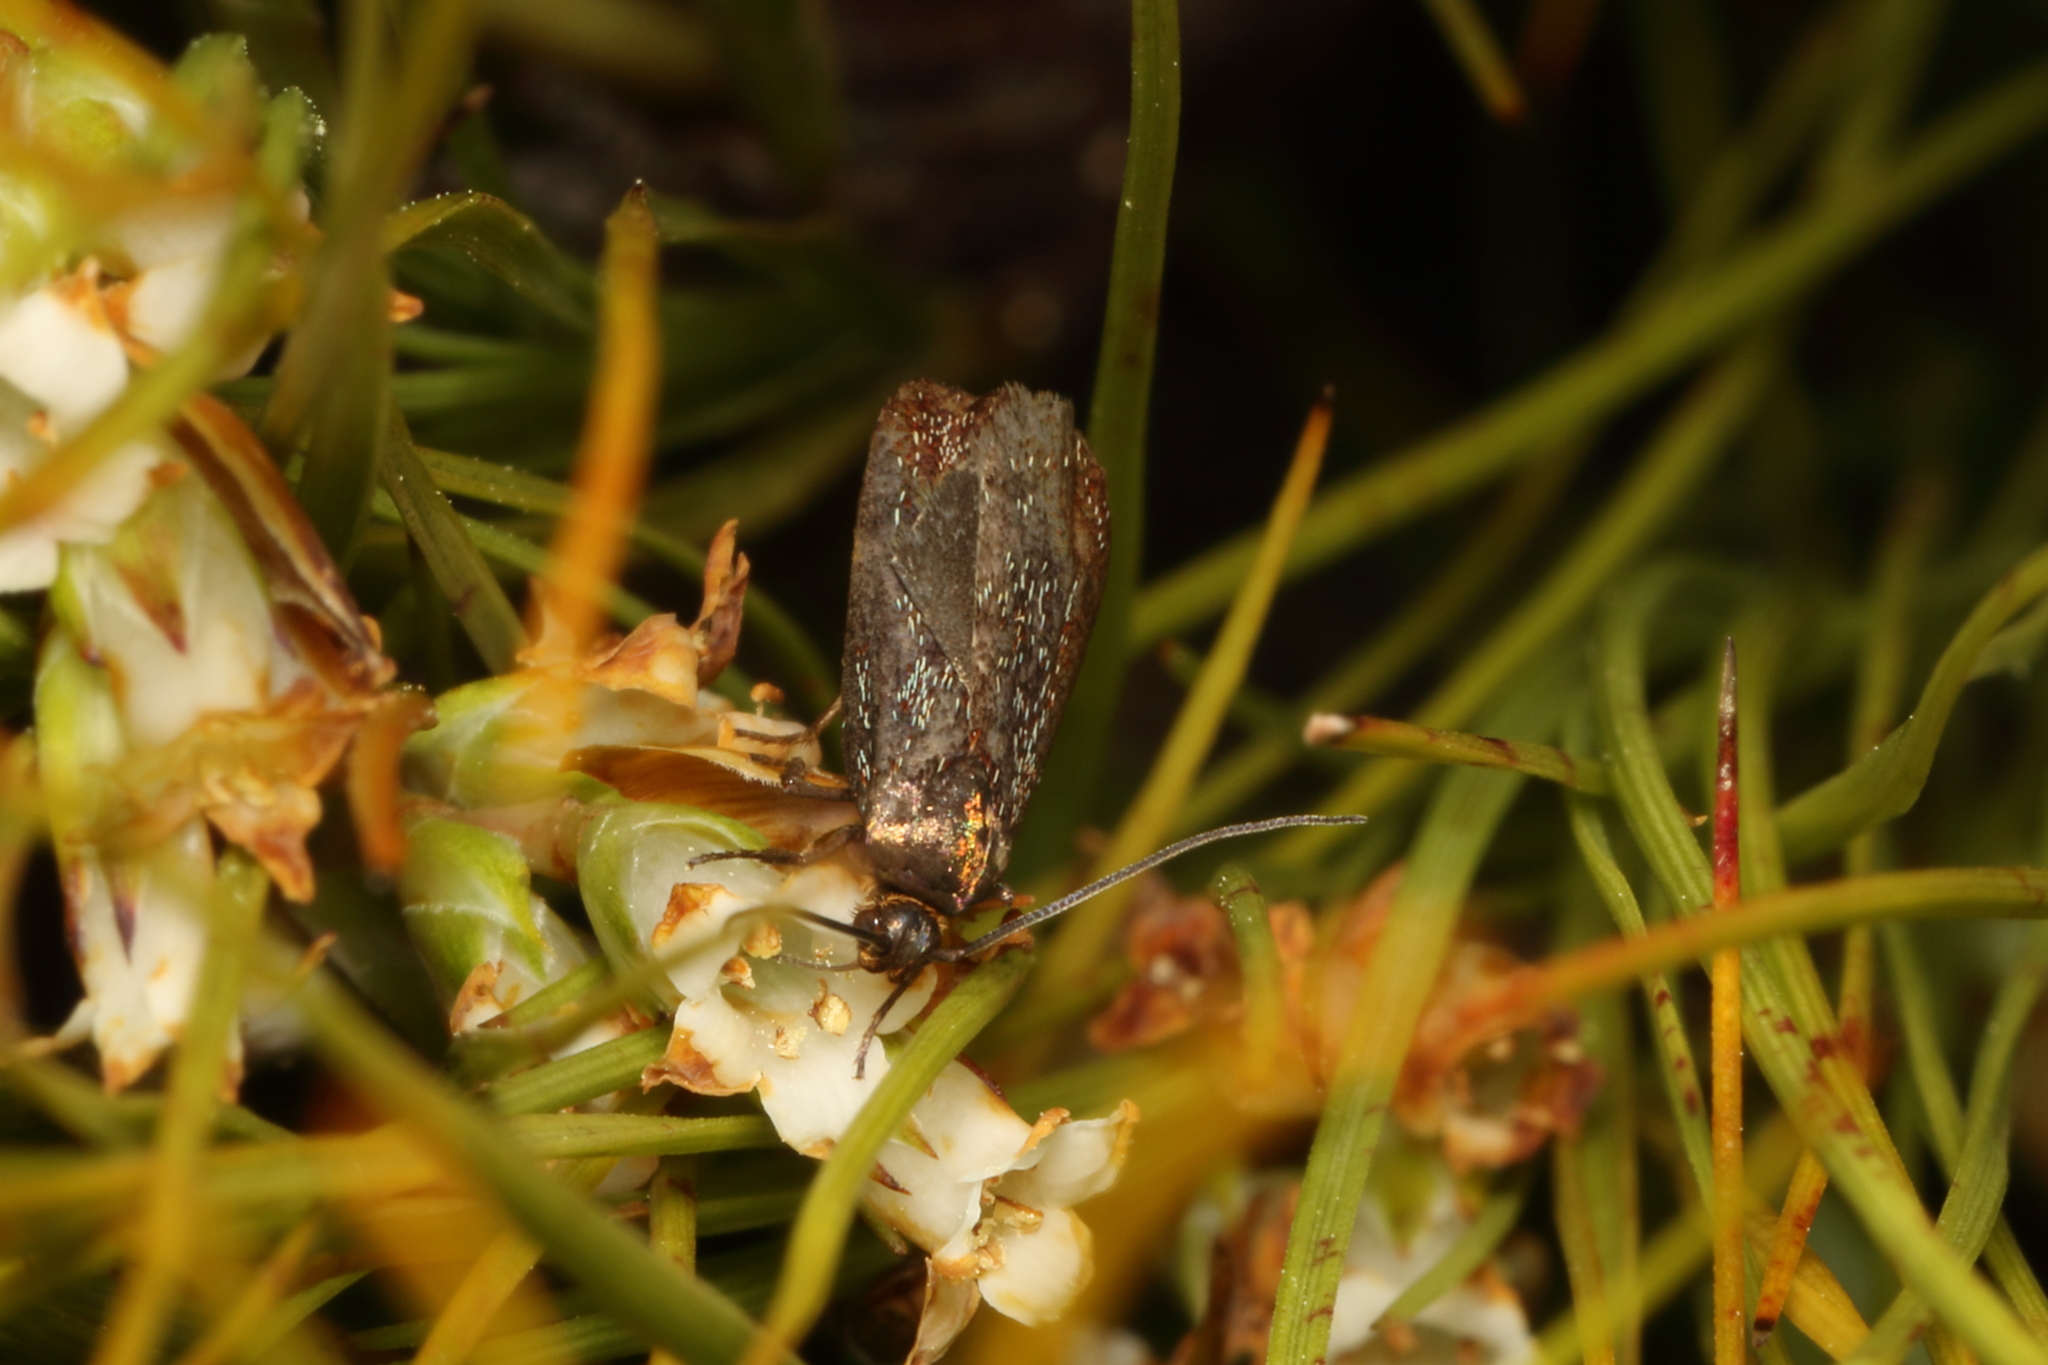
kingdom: Animalia
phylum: Arthropoda
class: Insecta
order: Lepidoptera
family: Oecophoridae
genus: Hierodoris
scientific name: Hierodoris callispora
